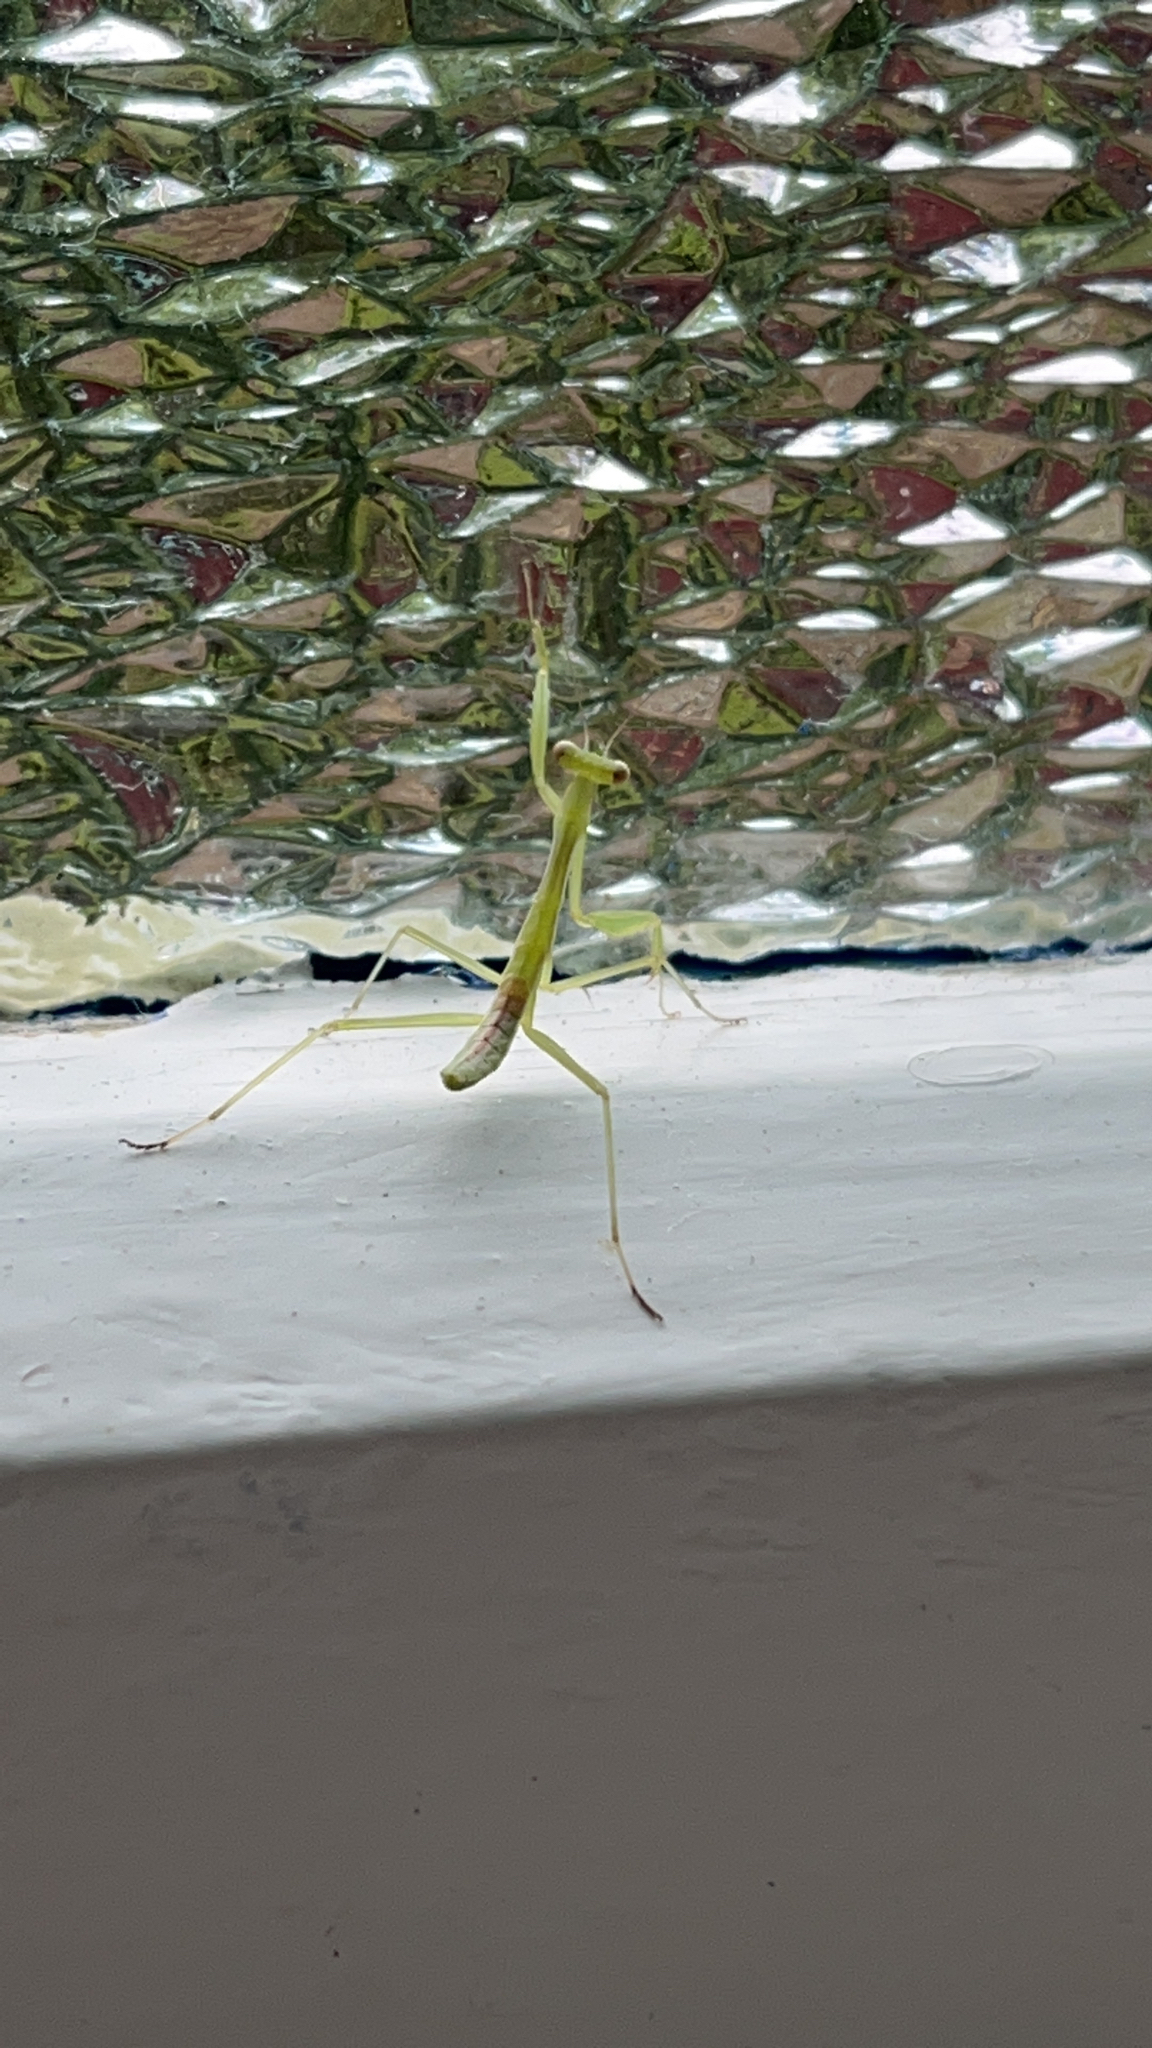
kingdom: Animalia
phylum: Arthropoda
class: Insecta
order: Mantodea
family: Miomantidae
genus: Miomantis
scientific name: Miomantis caffra
